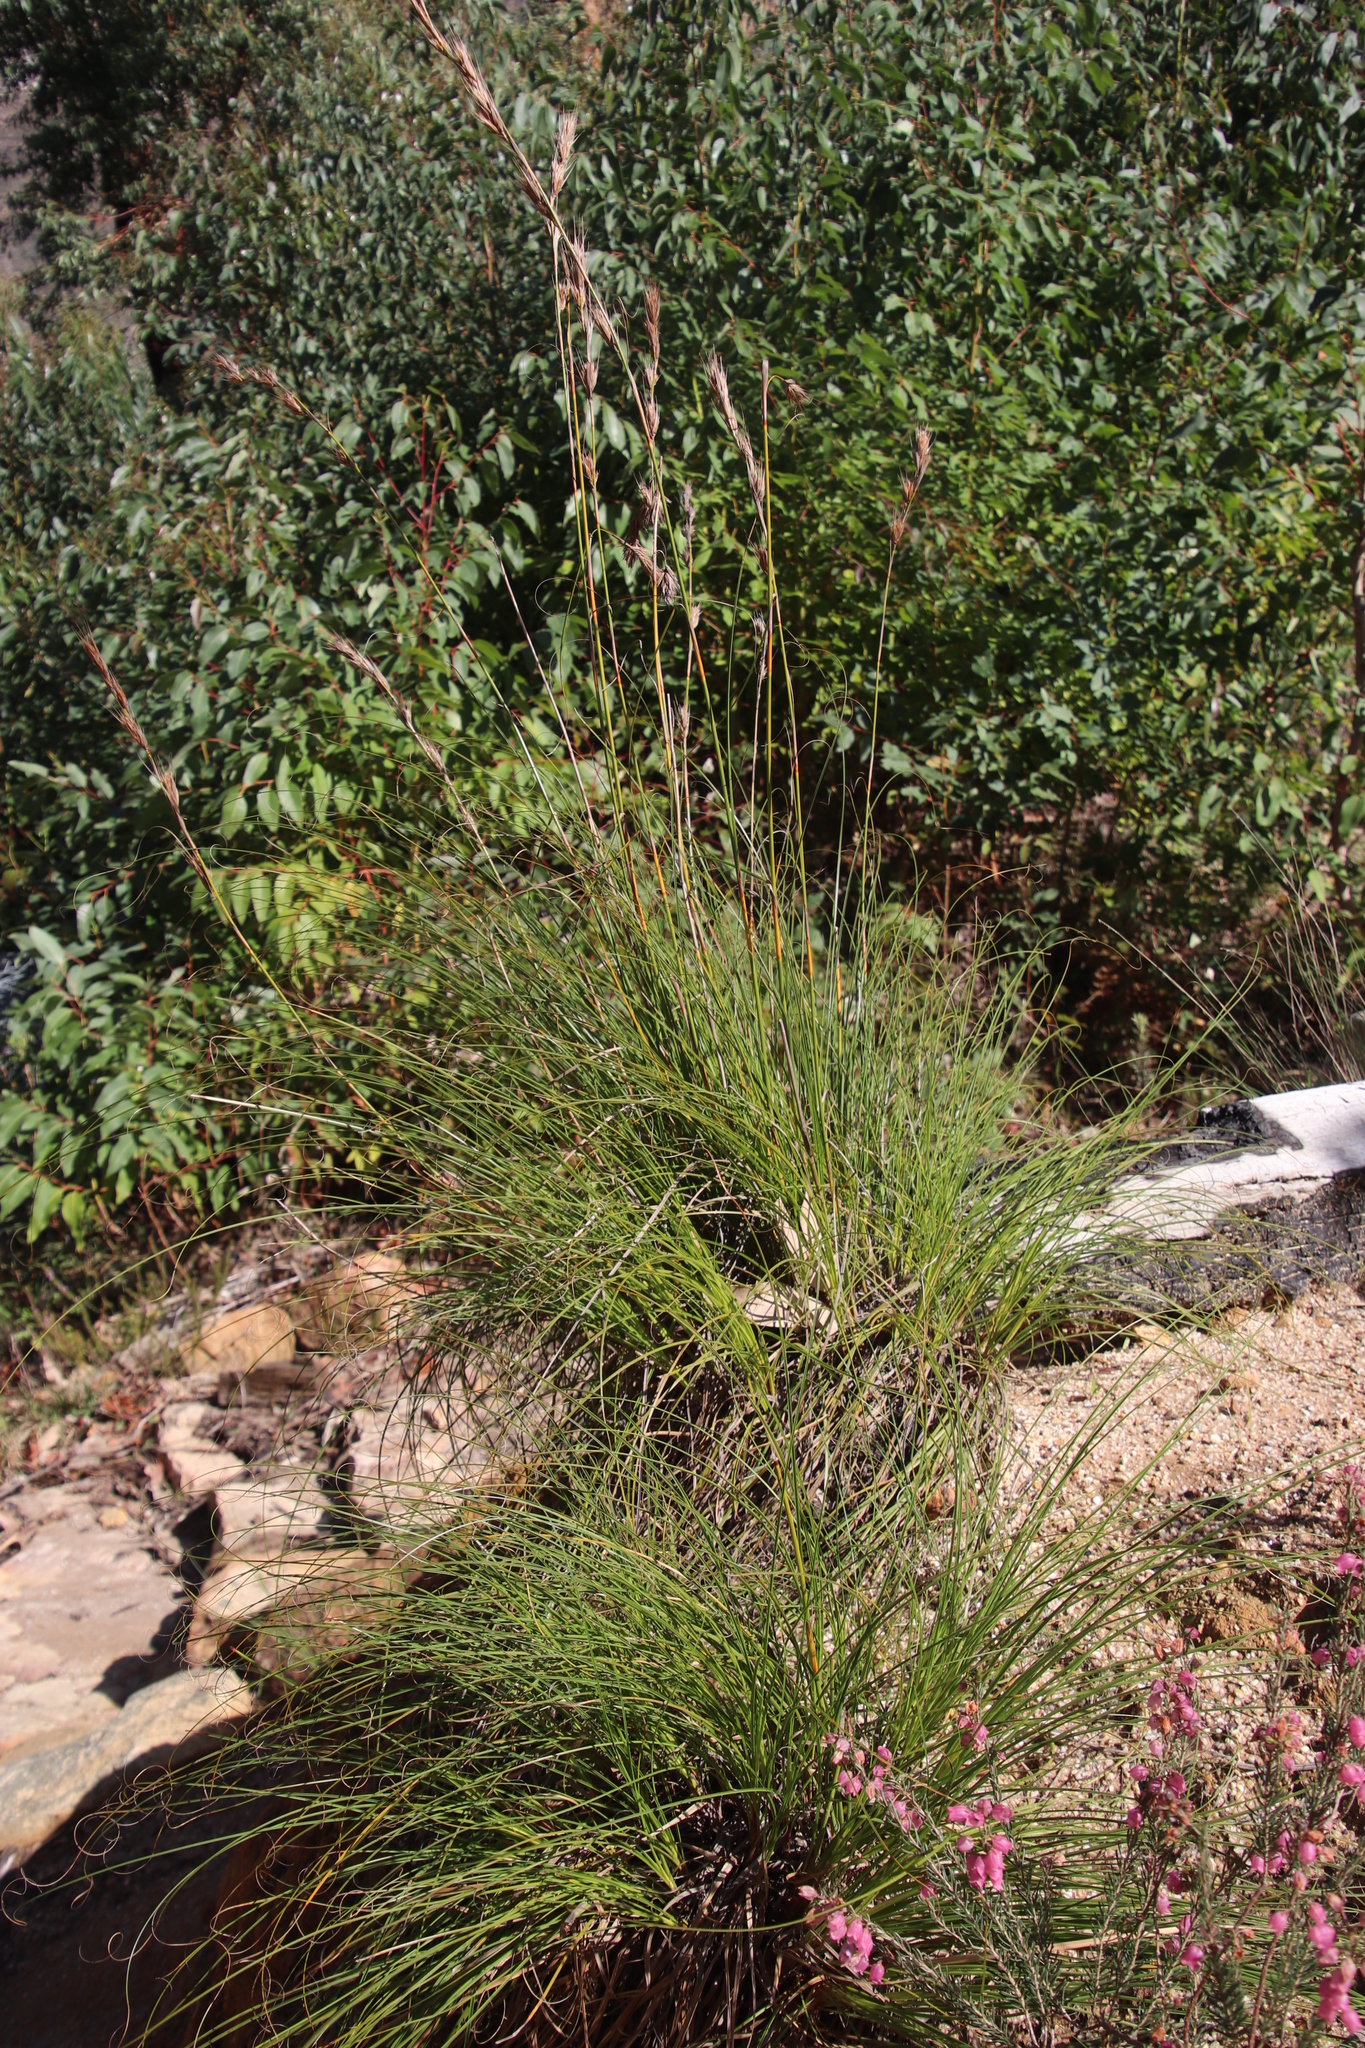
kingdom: Plantae
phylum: Tracheophyta
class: Liliopsida
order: Poales
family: Cyperaceae
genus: Tetraria
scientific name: Tetraria bromoides
